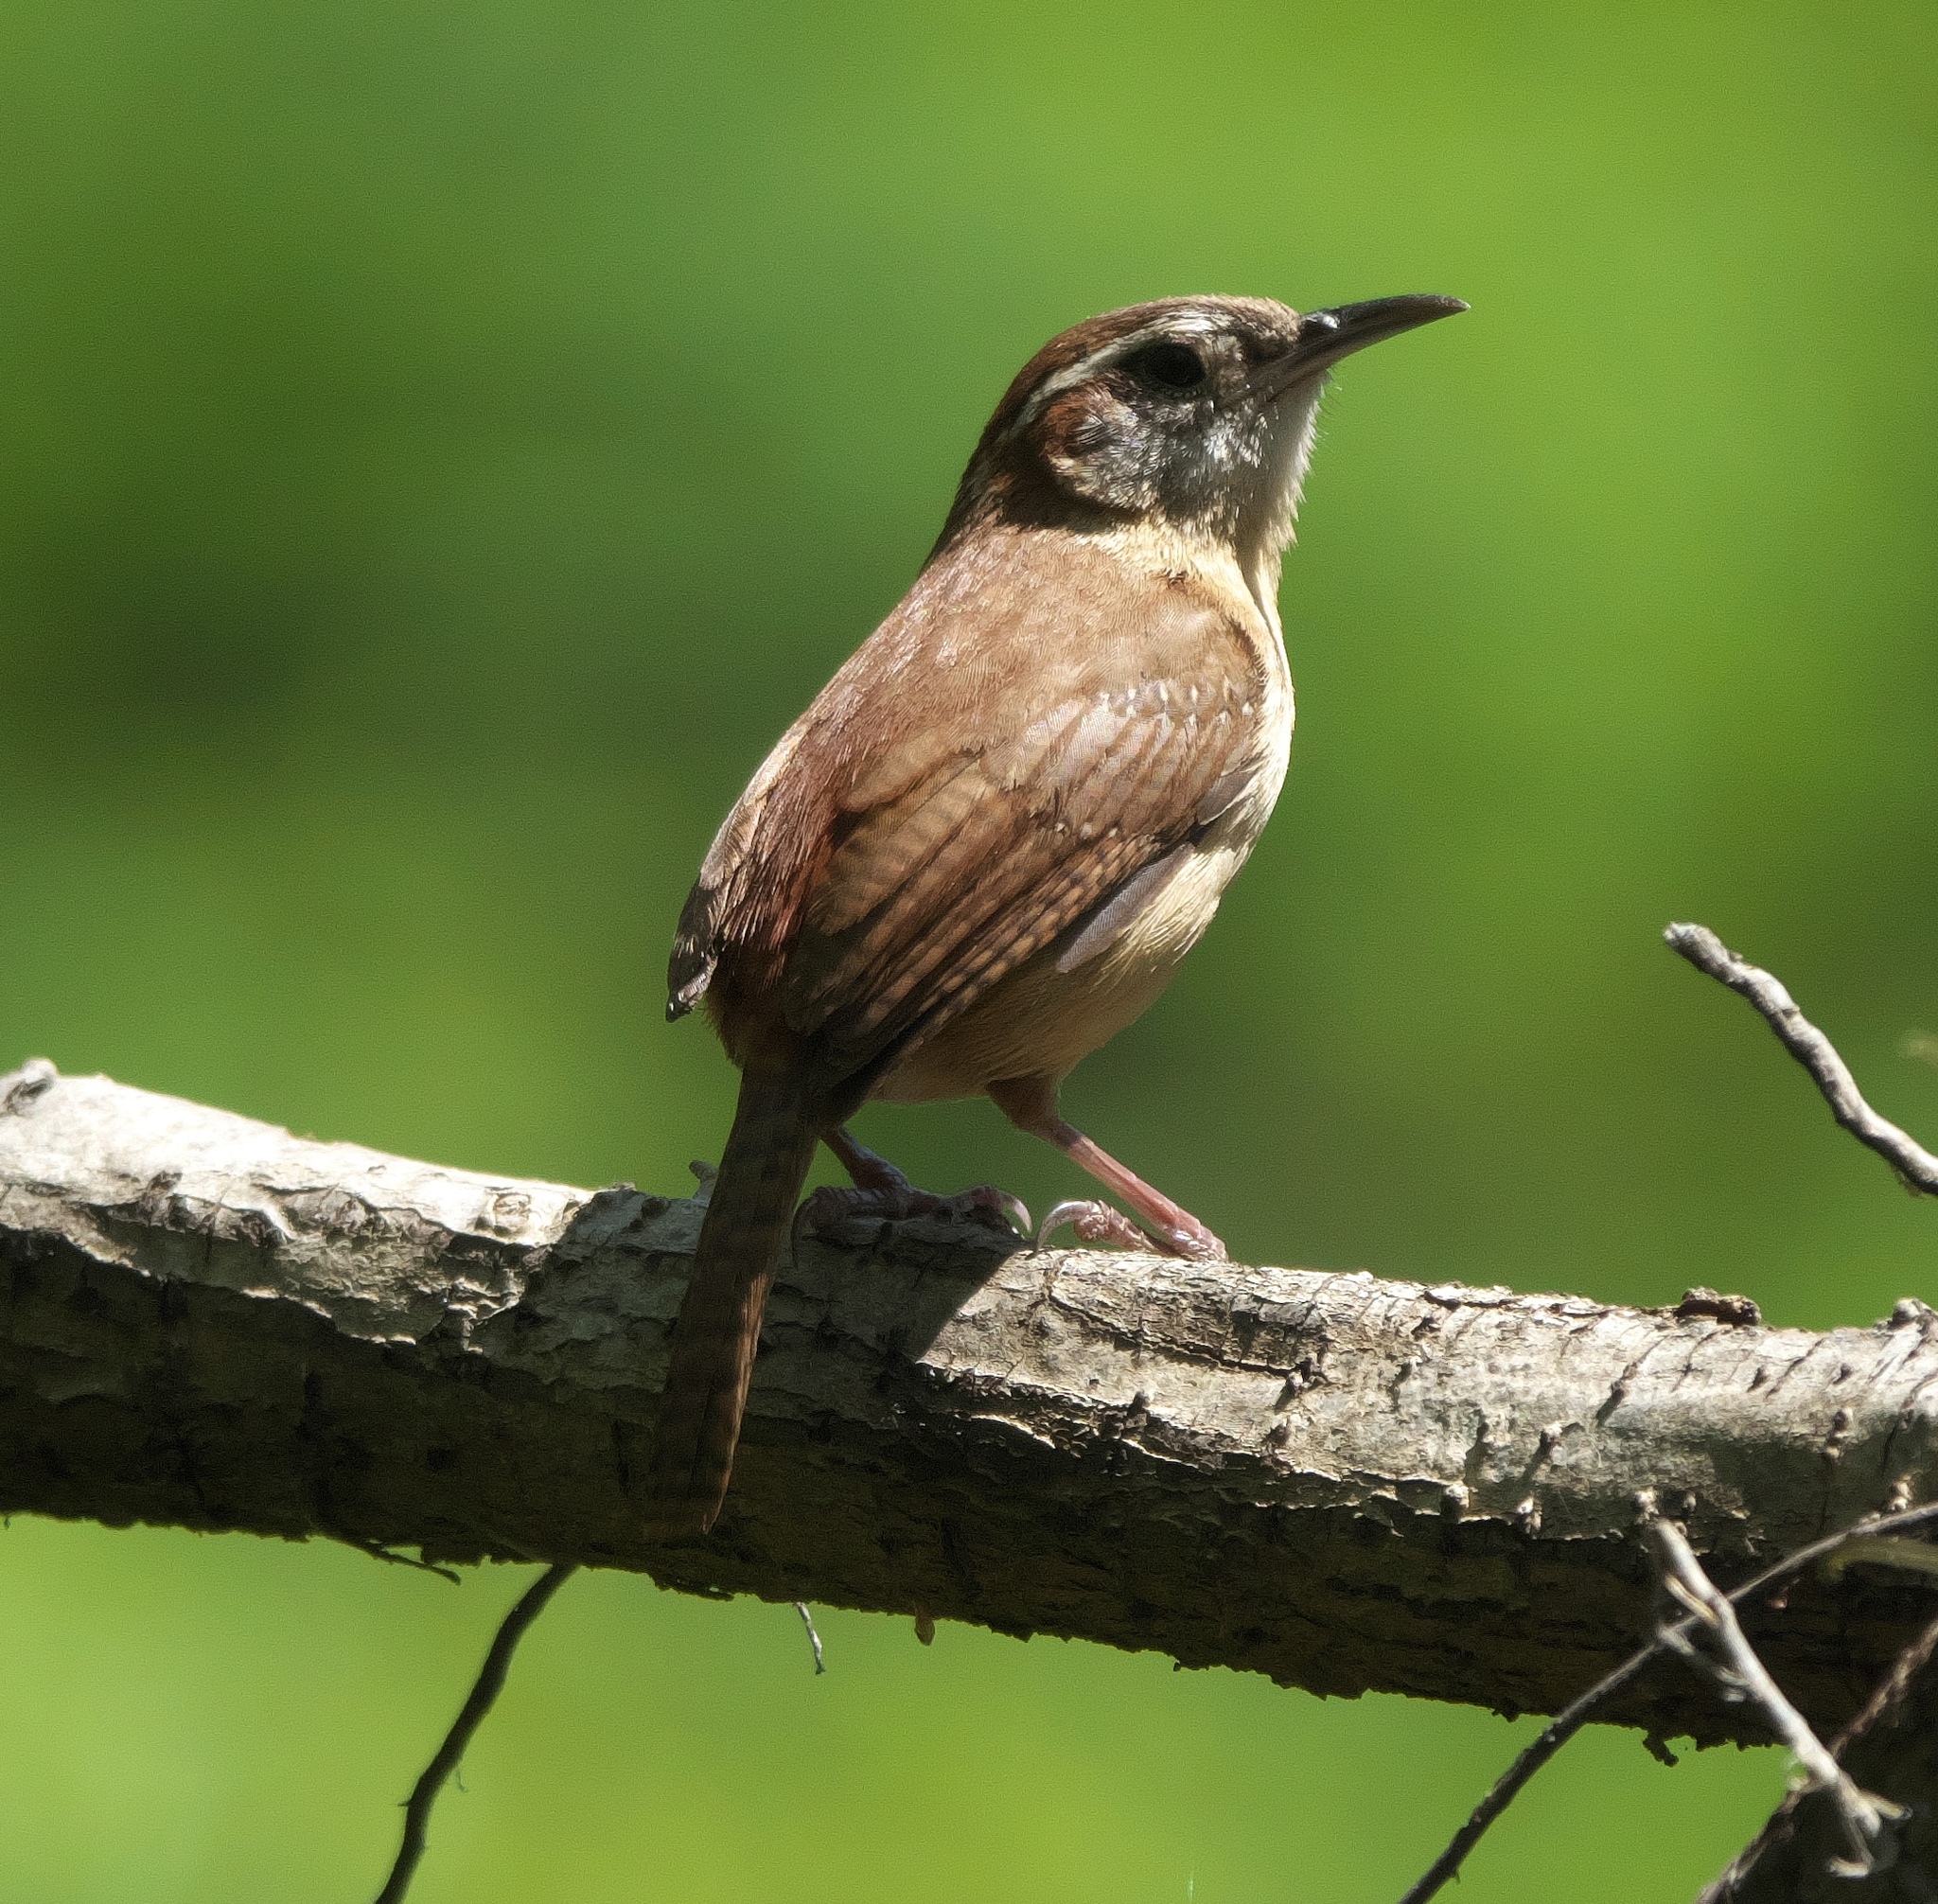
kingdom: Animalia
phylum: Chordata
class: Aves
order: Passeriformes
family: Troglodytidae
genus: Thryothorus
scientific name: Thryothorus ludovicianus
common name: Carolina wren
